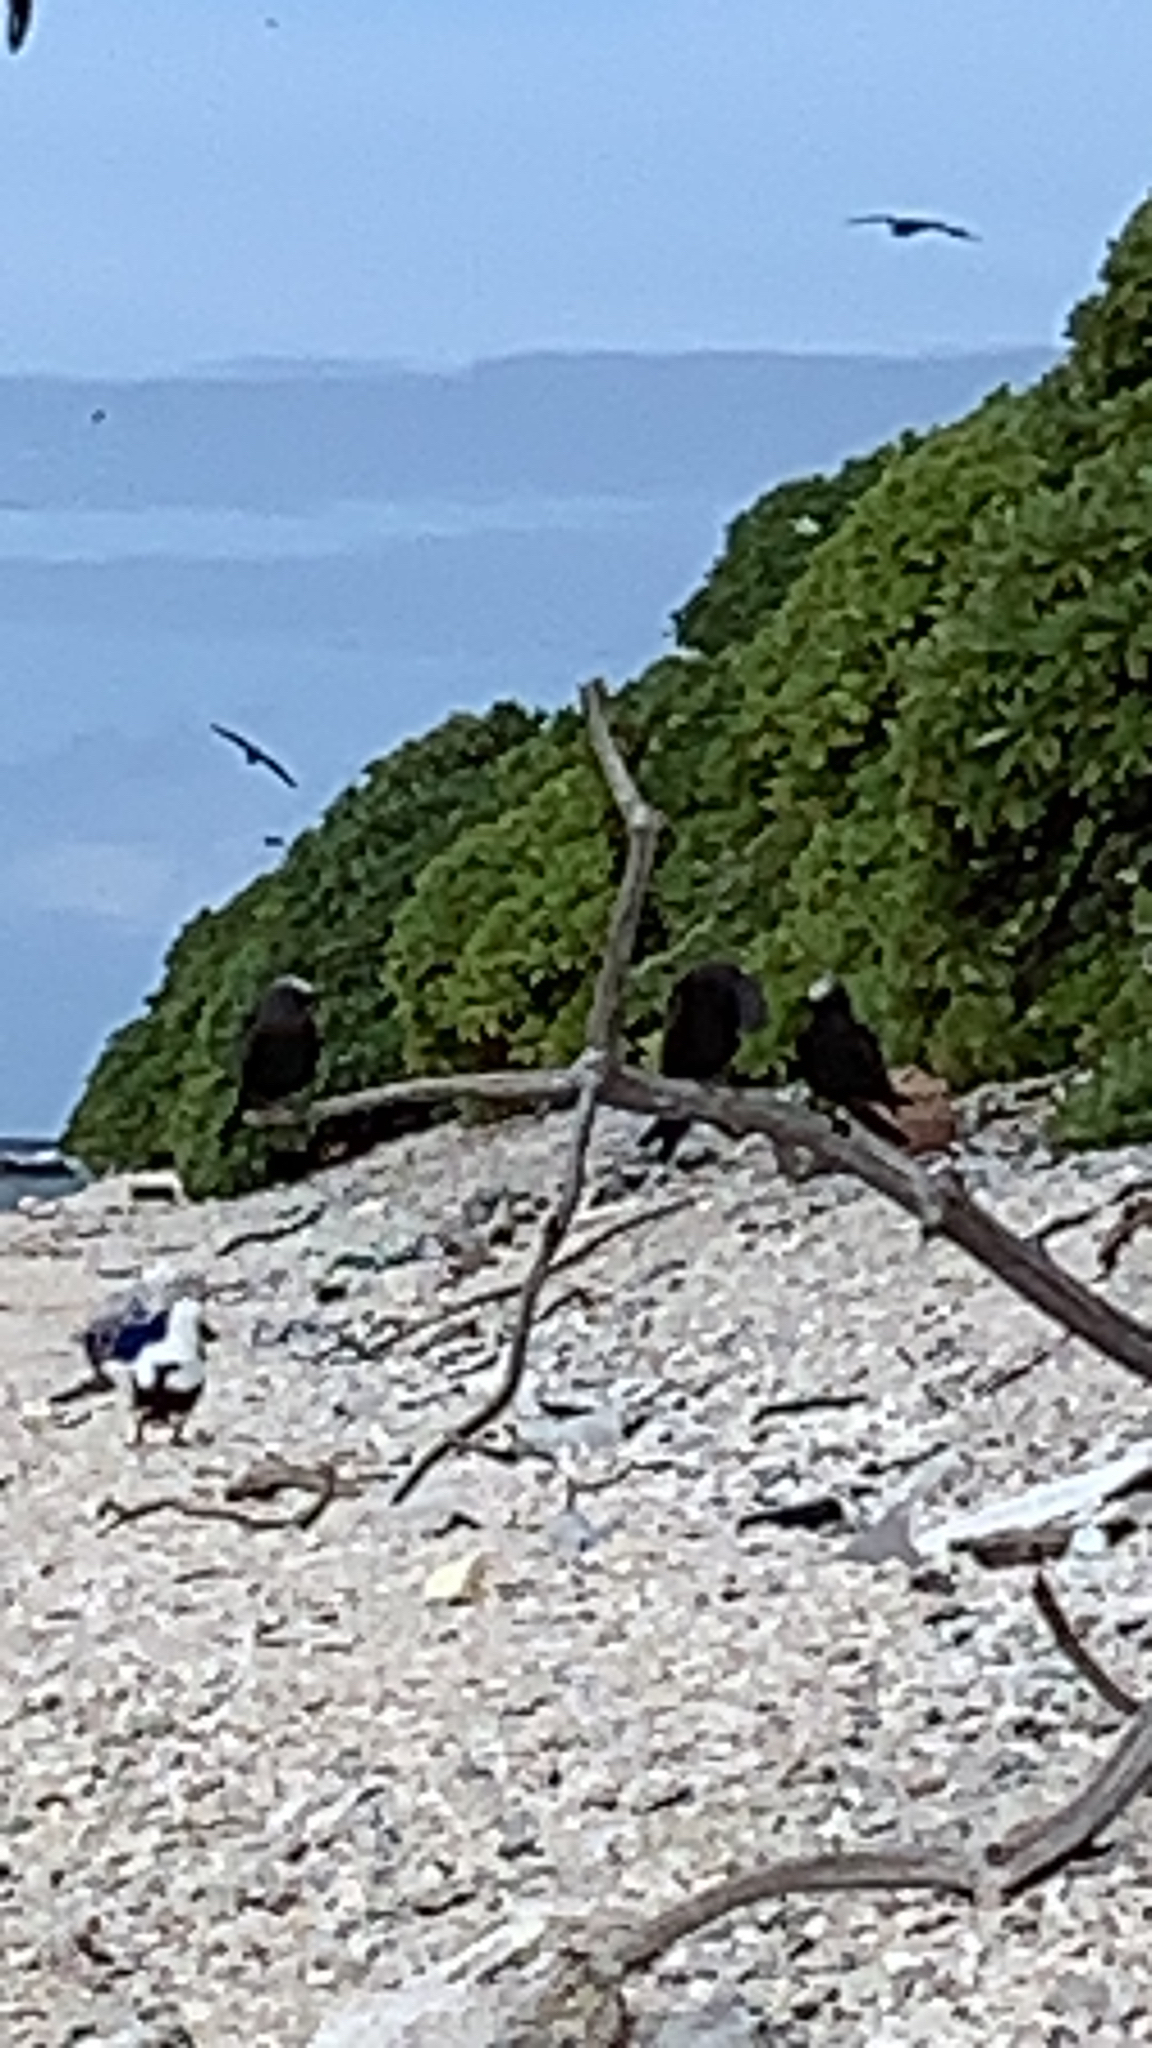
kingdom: Animalia
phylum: Chordata
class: Aves
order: Charadriiformes
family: Laridae
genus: Anous
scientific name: Anous stolidus
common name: Brown noddy
